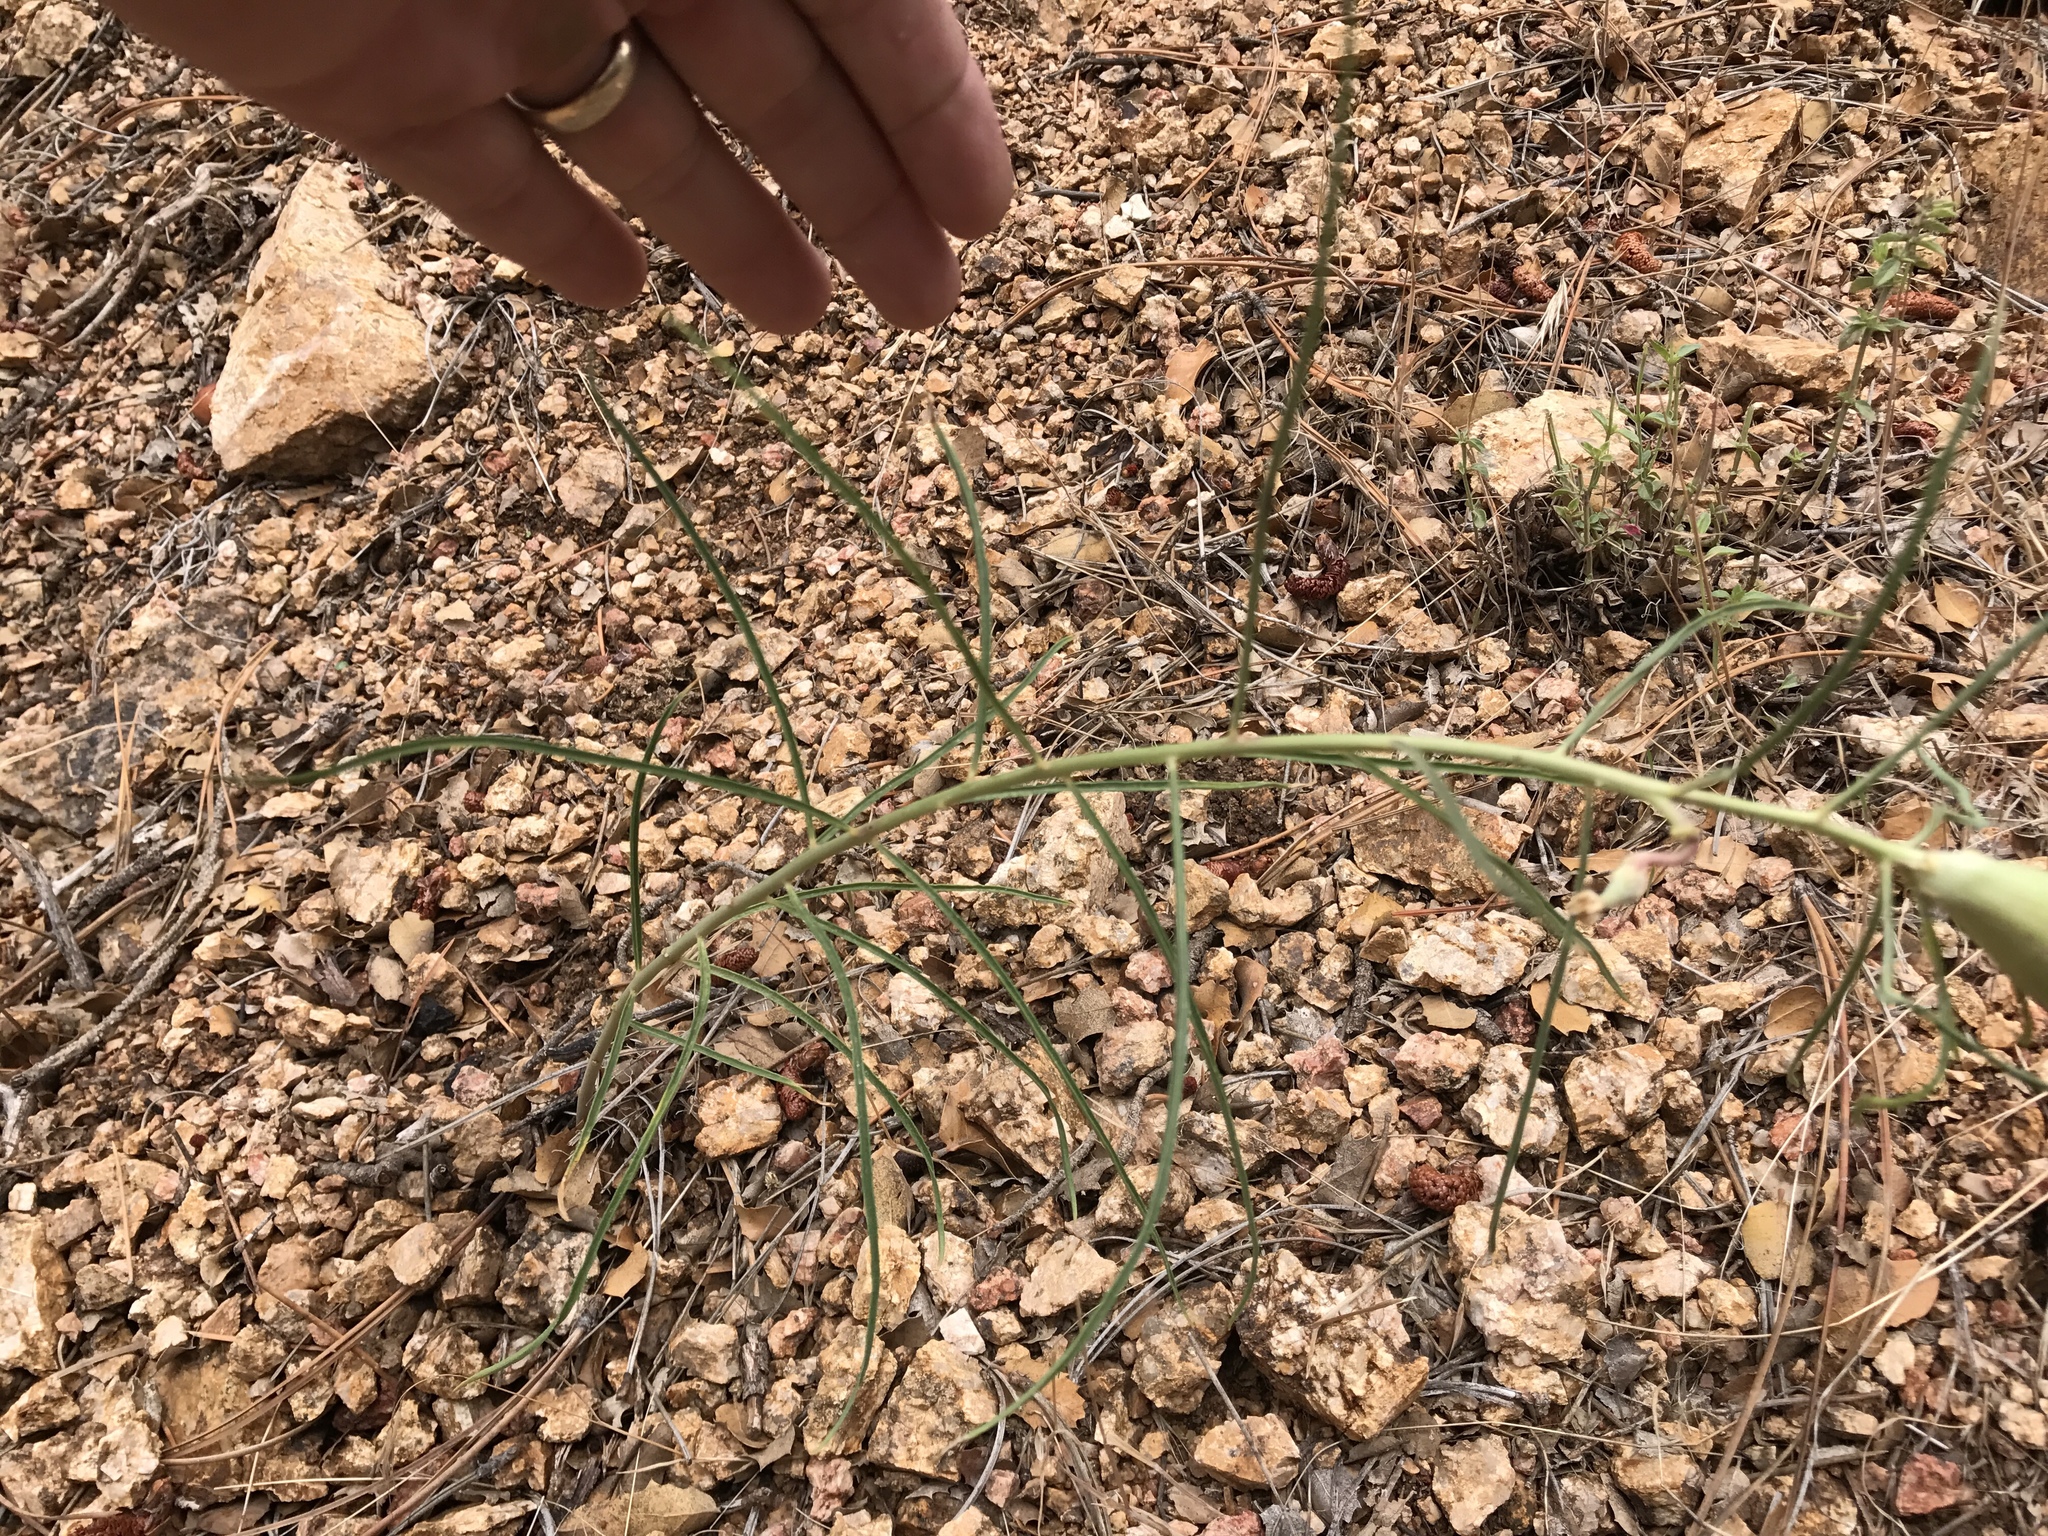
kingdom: Plantae
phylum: Tracheophyta
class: Magnoliopsida
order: Gentianales
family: Apocynaceae
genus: Asclepias
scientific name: Asclepias rusbyi
